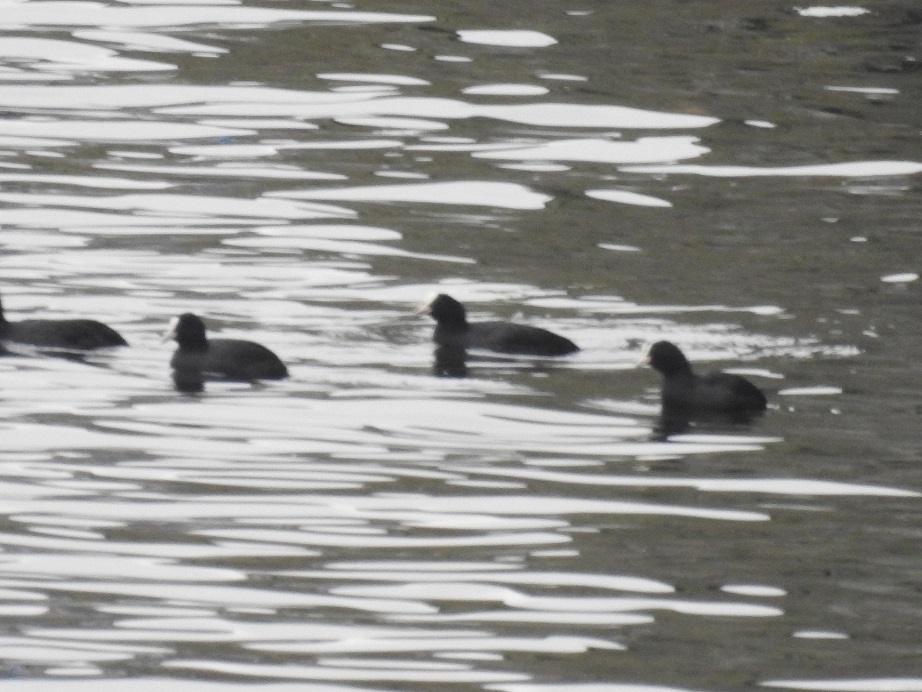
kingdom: Animalia
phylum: Chordata
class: Aves
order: Gruiformes
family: Rallidae
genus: Fulica
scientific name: Fulica atra
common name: Eurasian coot
